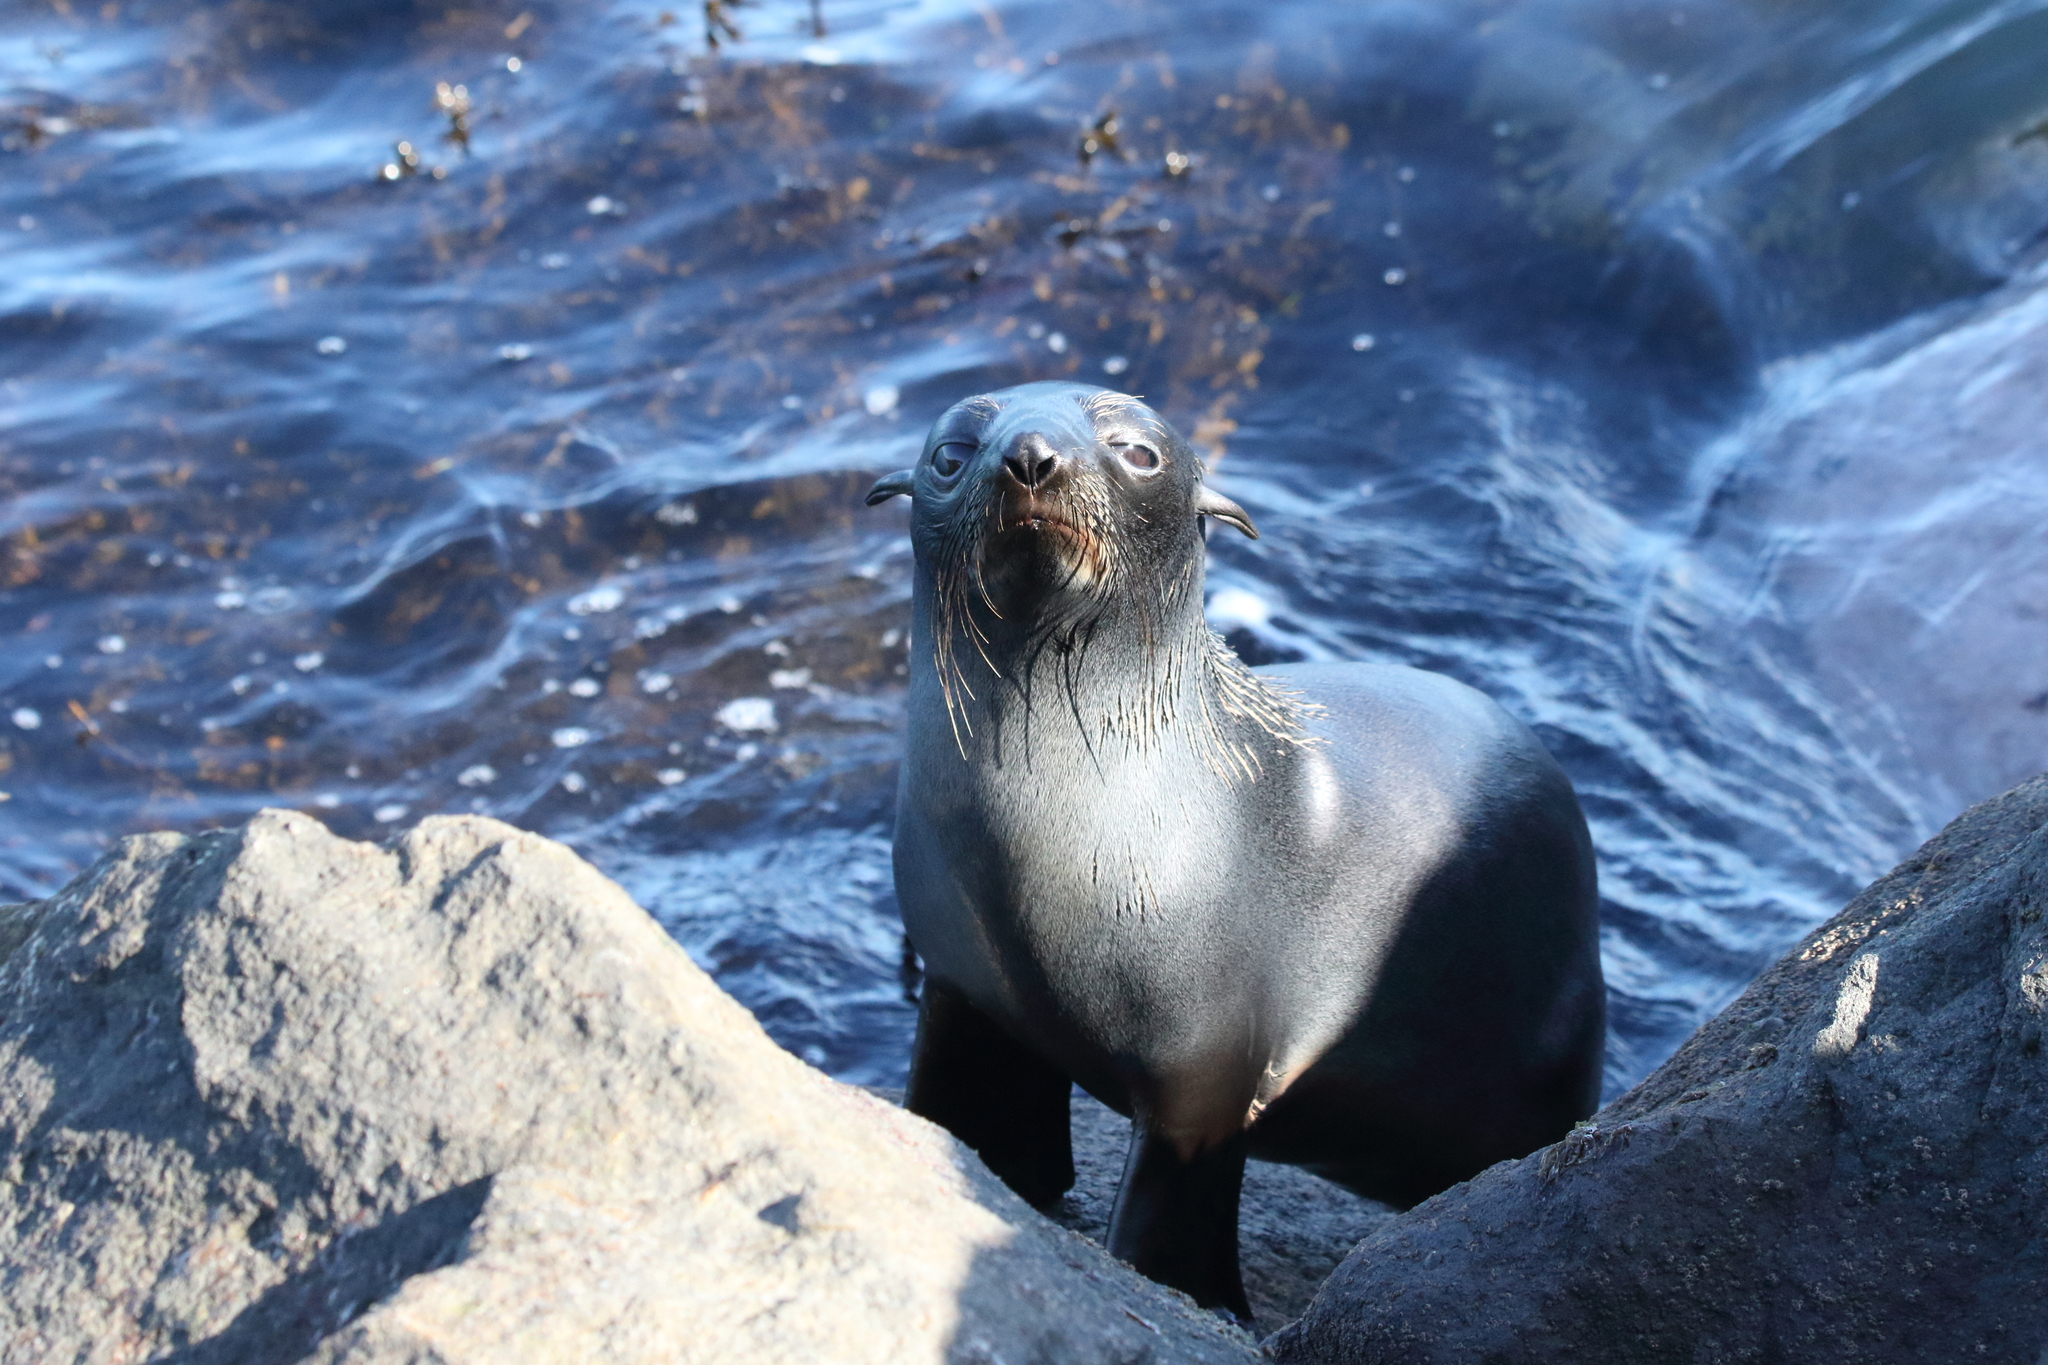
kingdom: Animalia
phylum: Chordata
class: Mammalia
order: Carnivora
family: Otariidae
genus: Arctocephalus
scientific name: Arctocephalus forsteri
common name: New zealand fur seal
